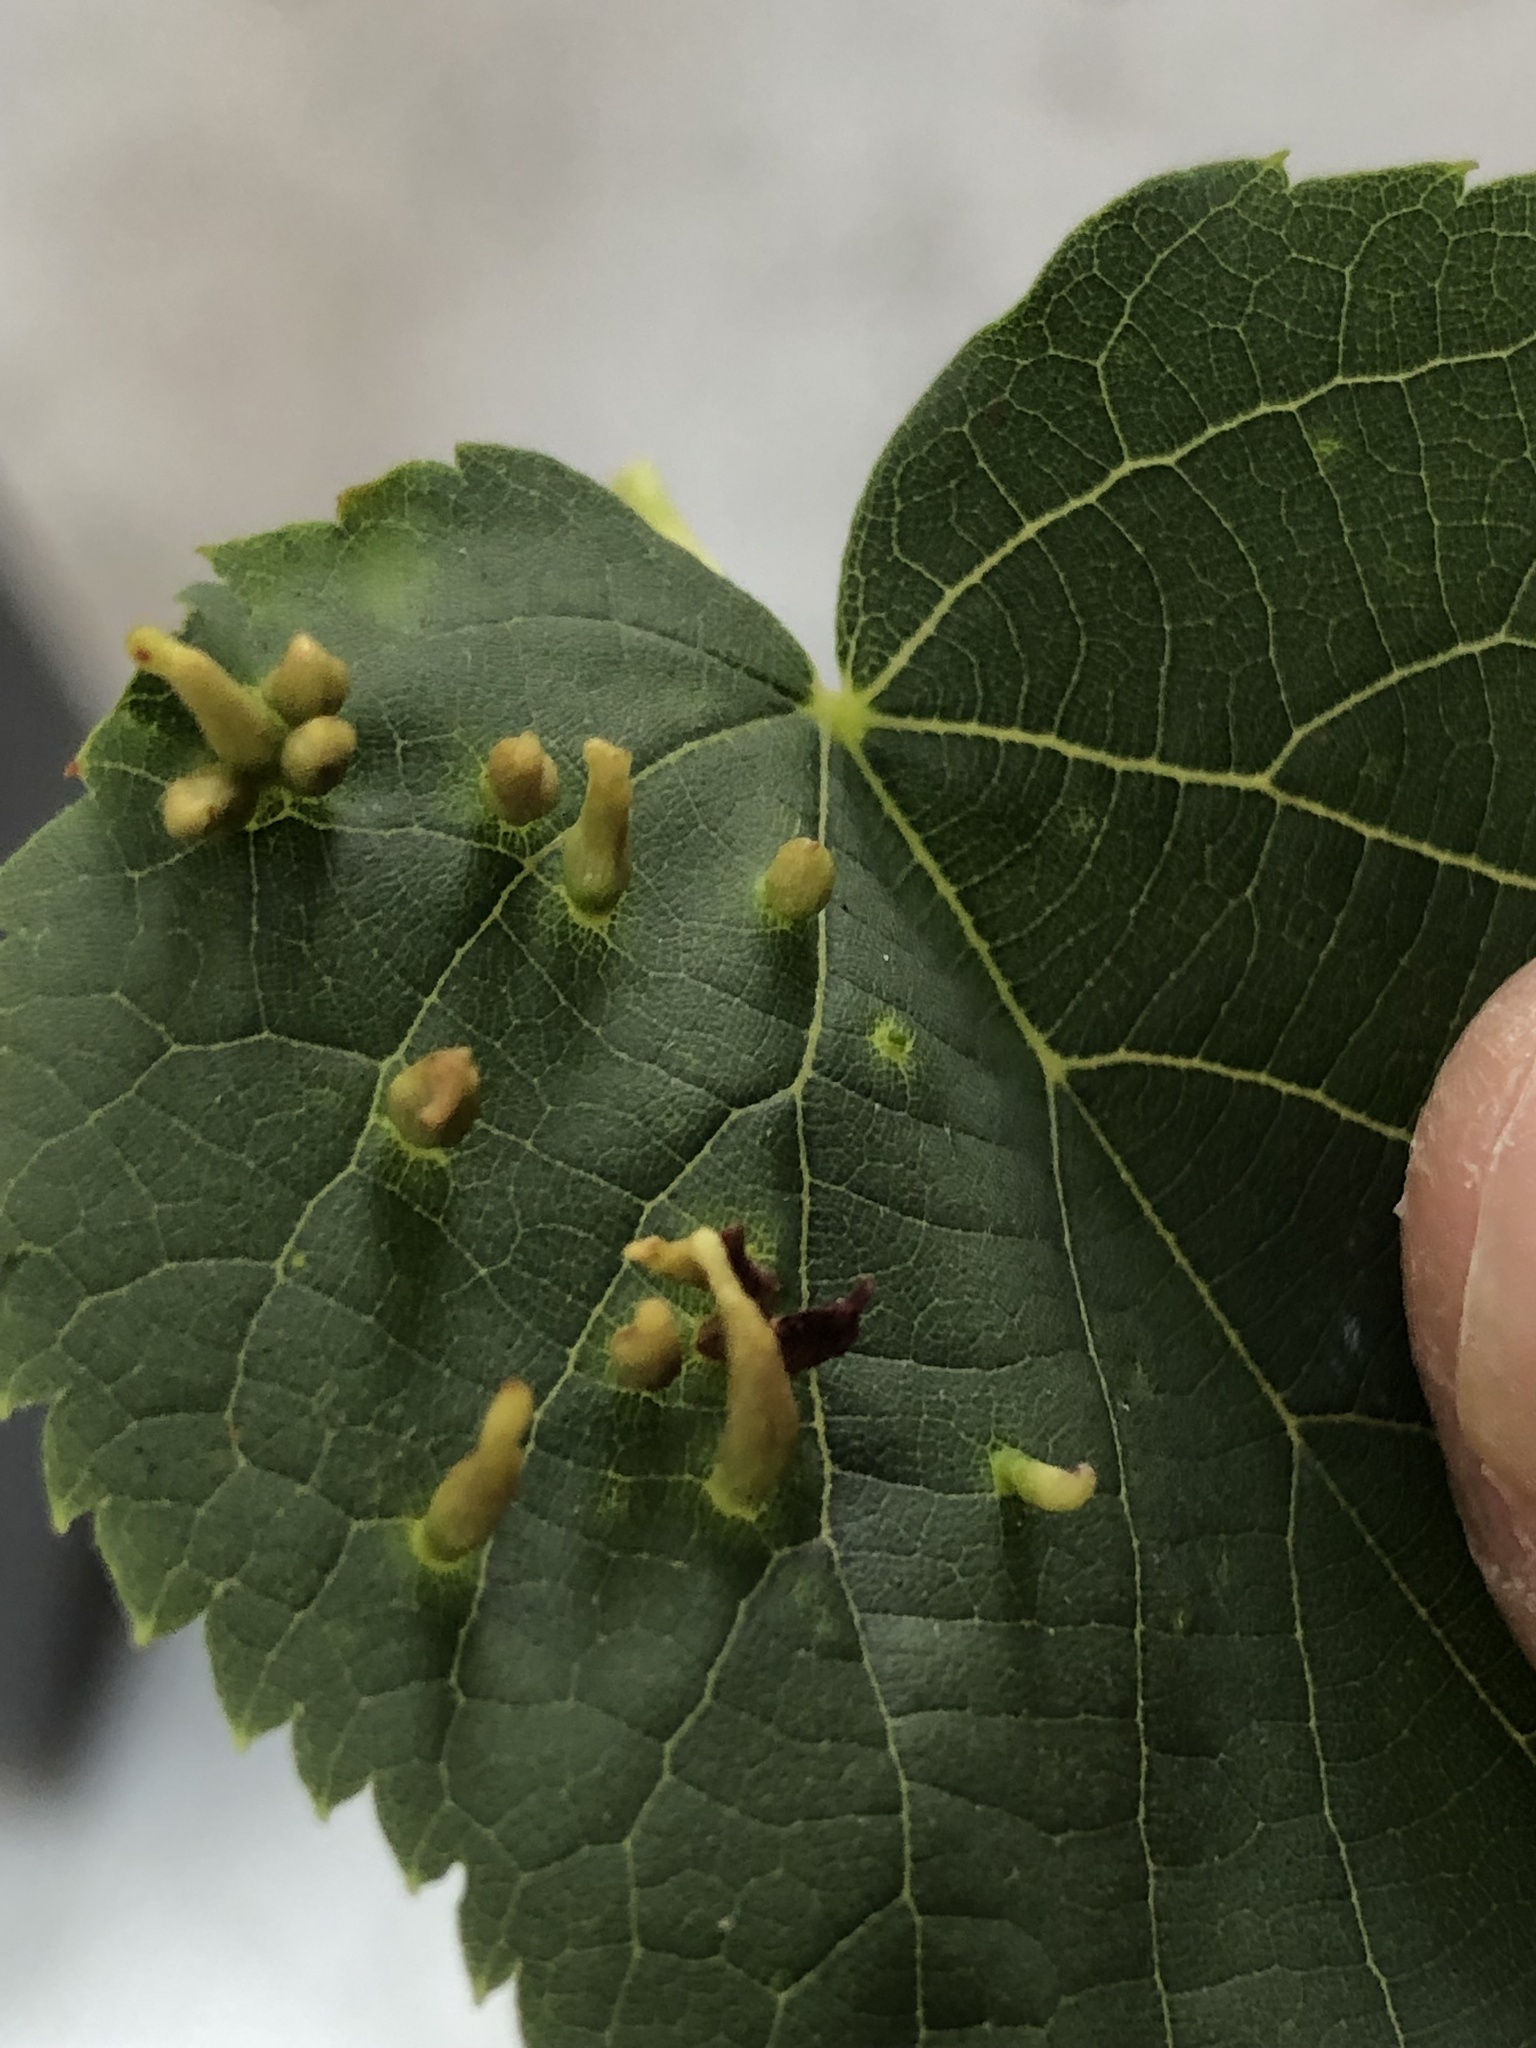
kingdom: Animalia
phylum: Arthropoda
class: Arachnida
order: Trombidiformes
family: Eriophyidae
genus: Eriophyes
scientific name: Eriophyes tiliae
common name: Red nail gall mite
